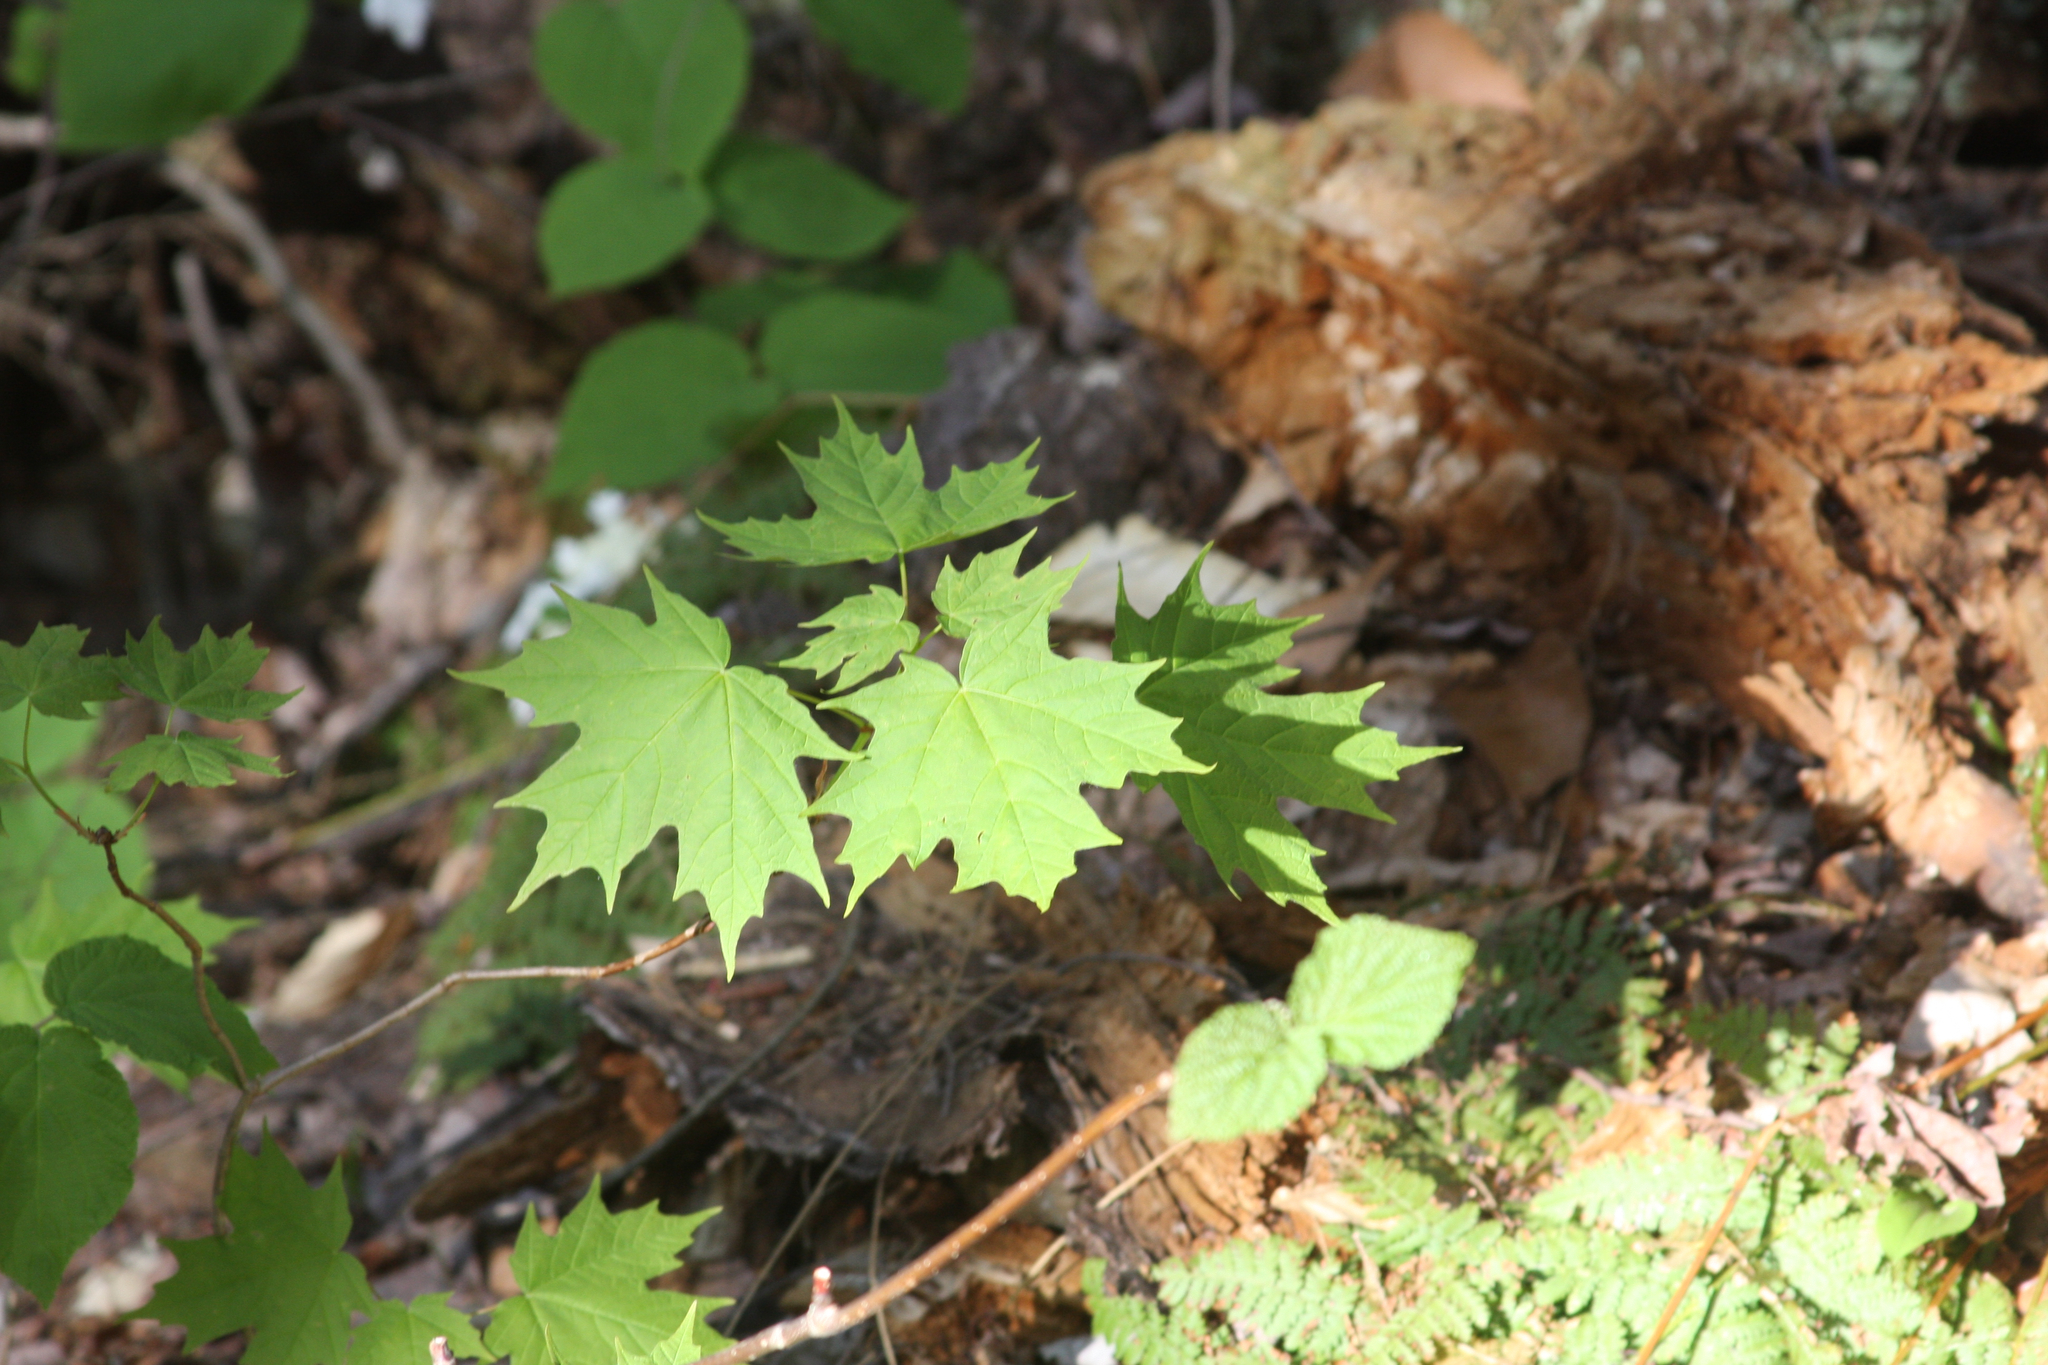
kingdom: Plantae
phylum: Tracheophyta
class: Magnoliopsida
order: Sapindales
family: Sapindaceae
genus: Acer
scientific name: Acer saccharum
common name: Sugar maple
